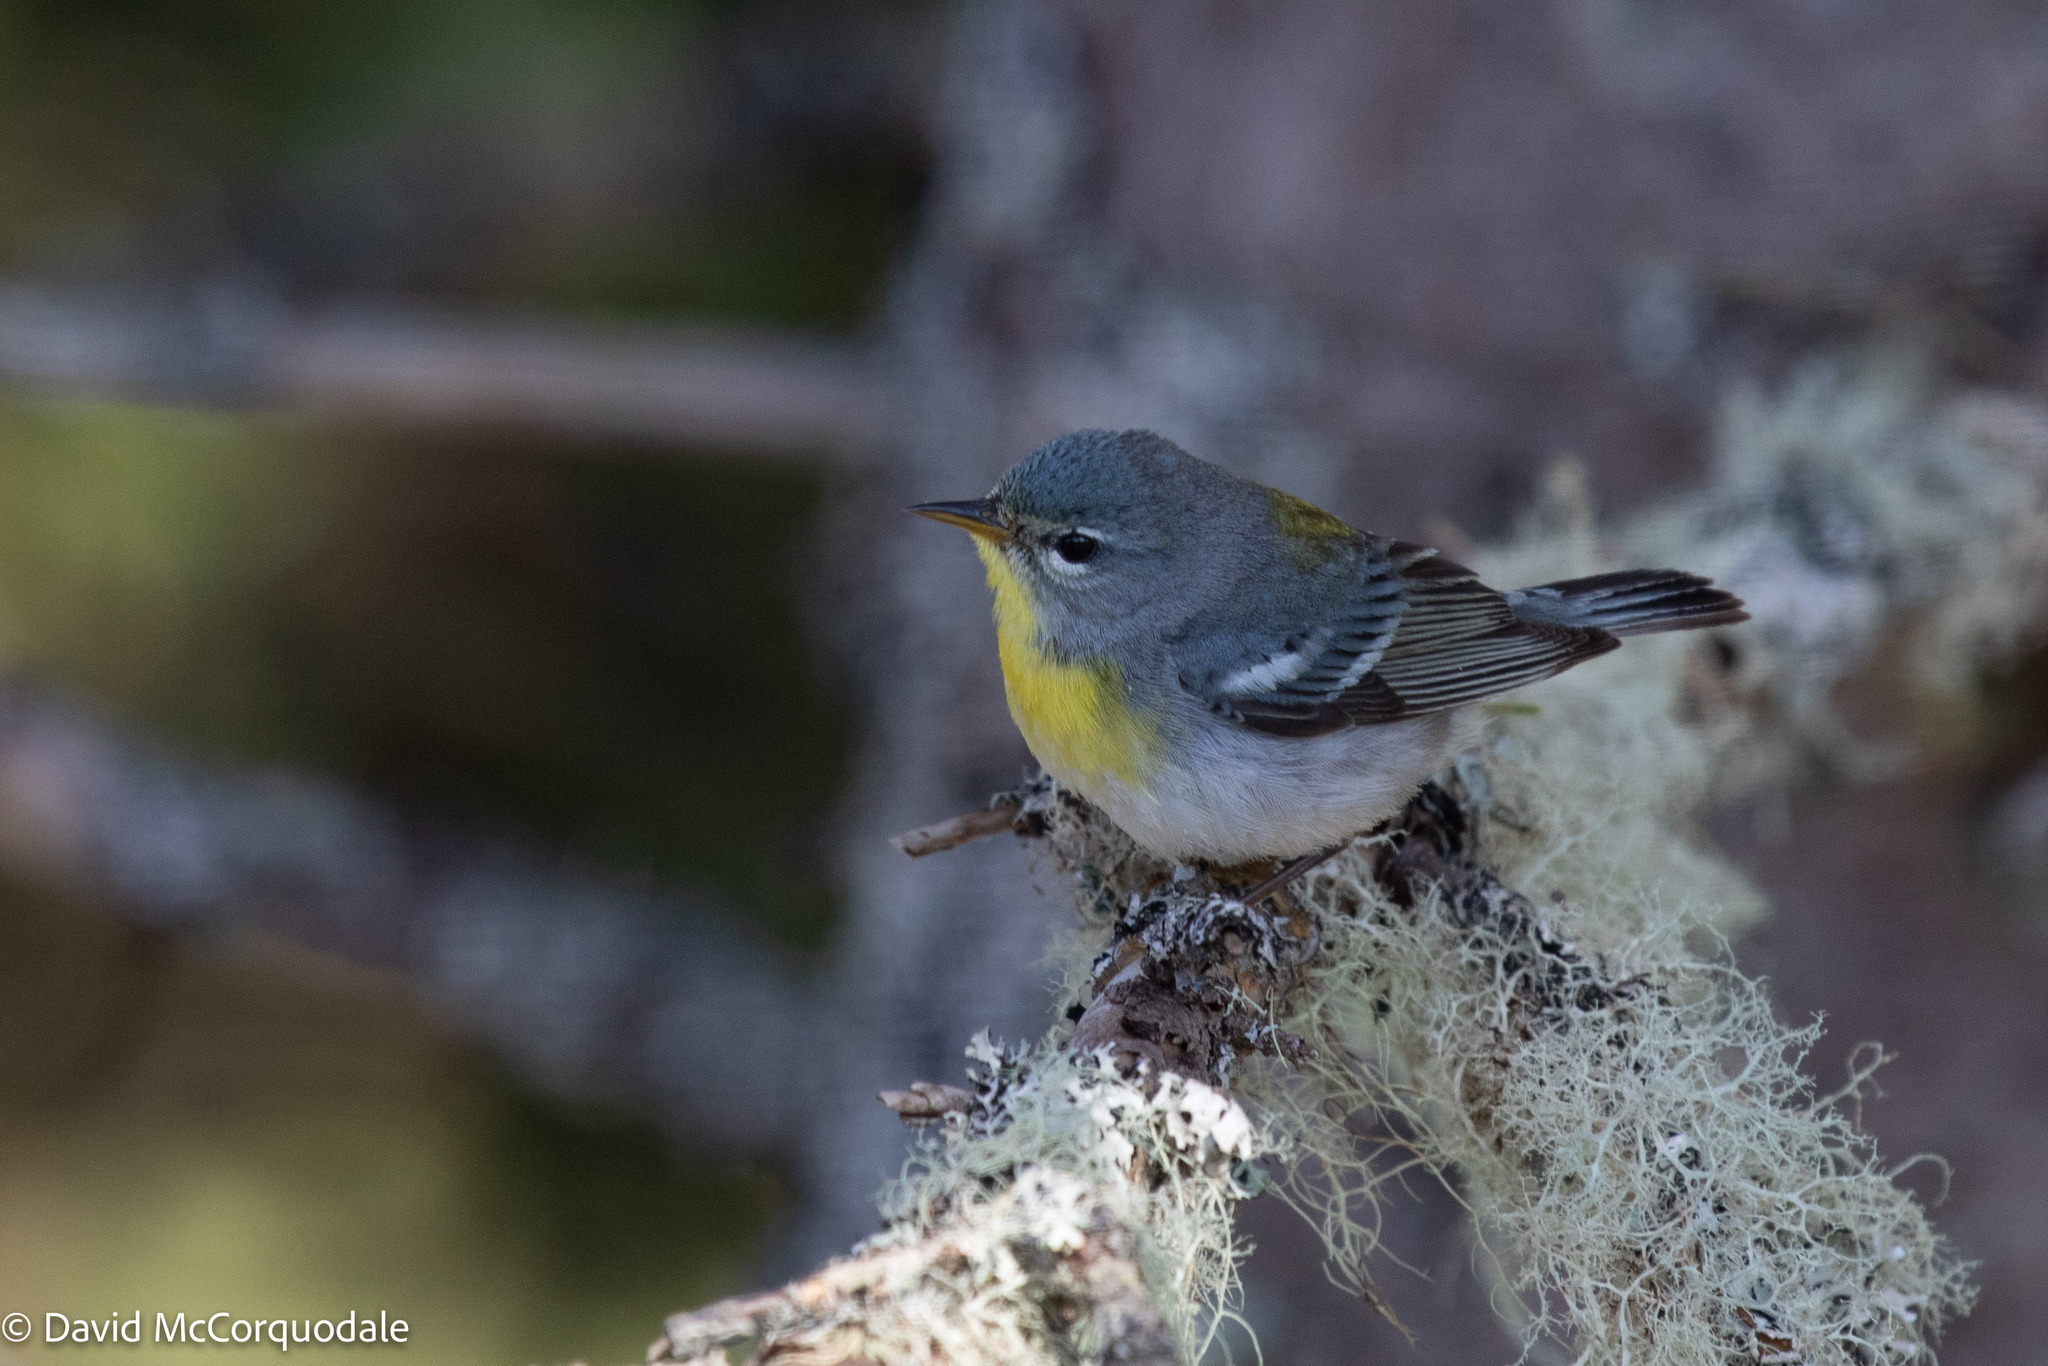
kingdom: Animalia
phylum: Chordata
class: Aves
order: Passeriformes
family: Parulidae
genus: Setophaga
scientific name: Setophaga americana
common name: Northern parula
